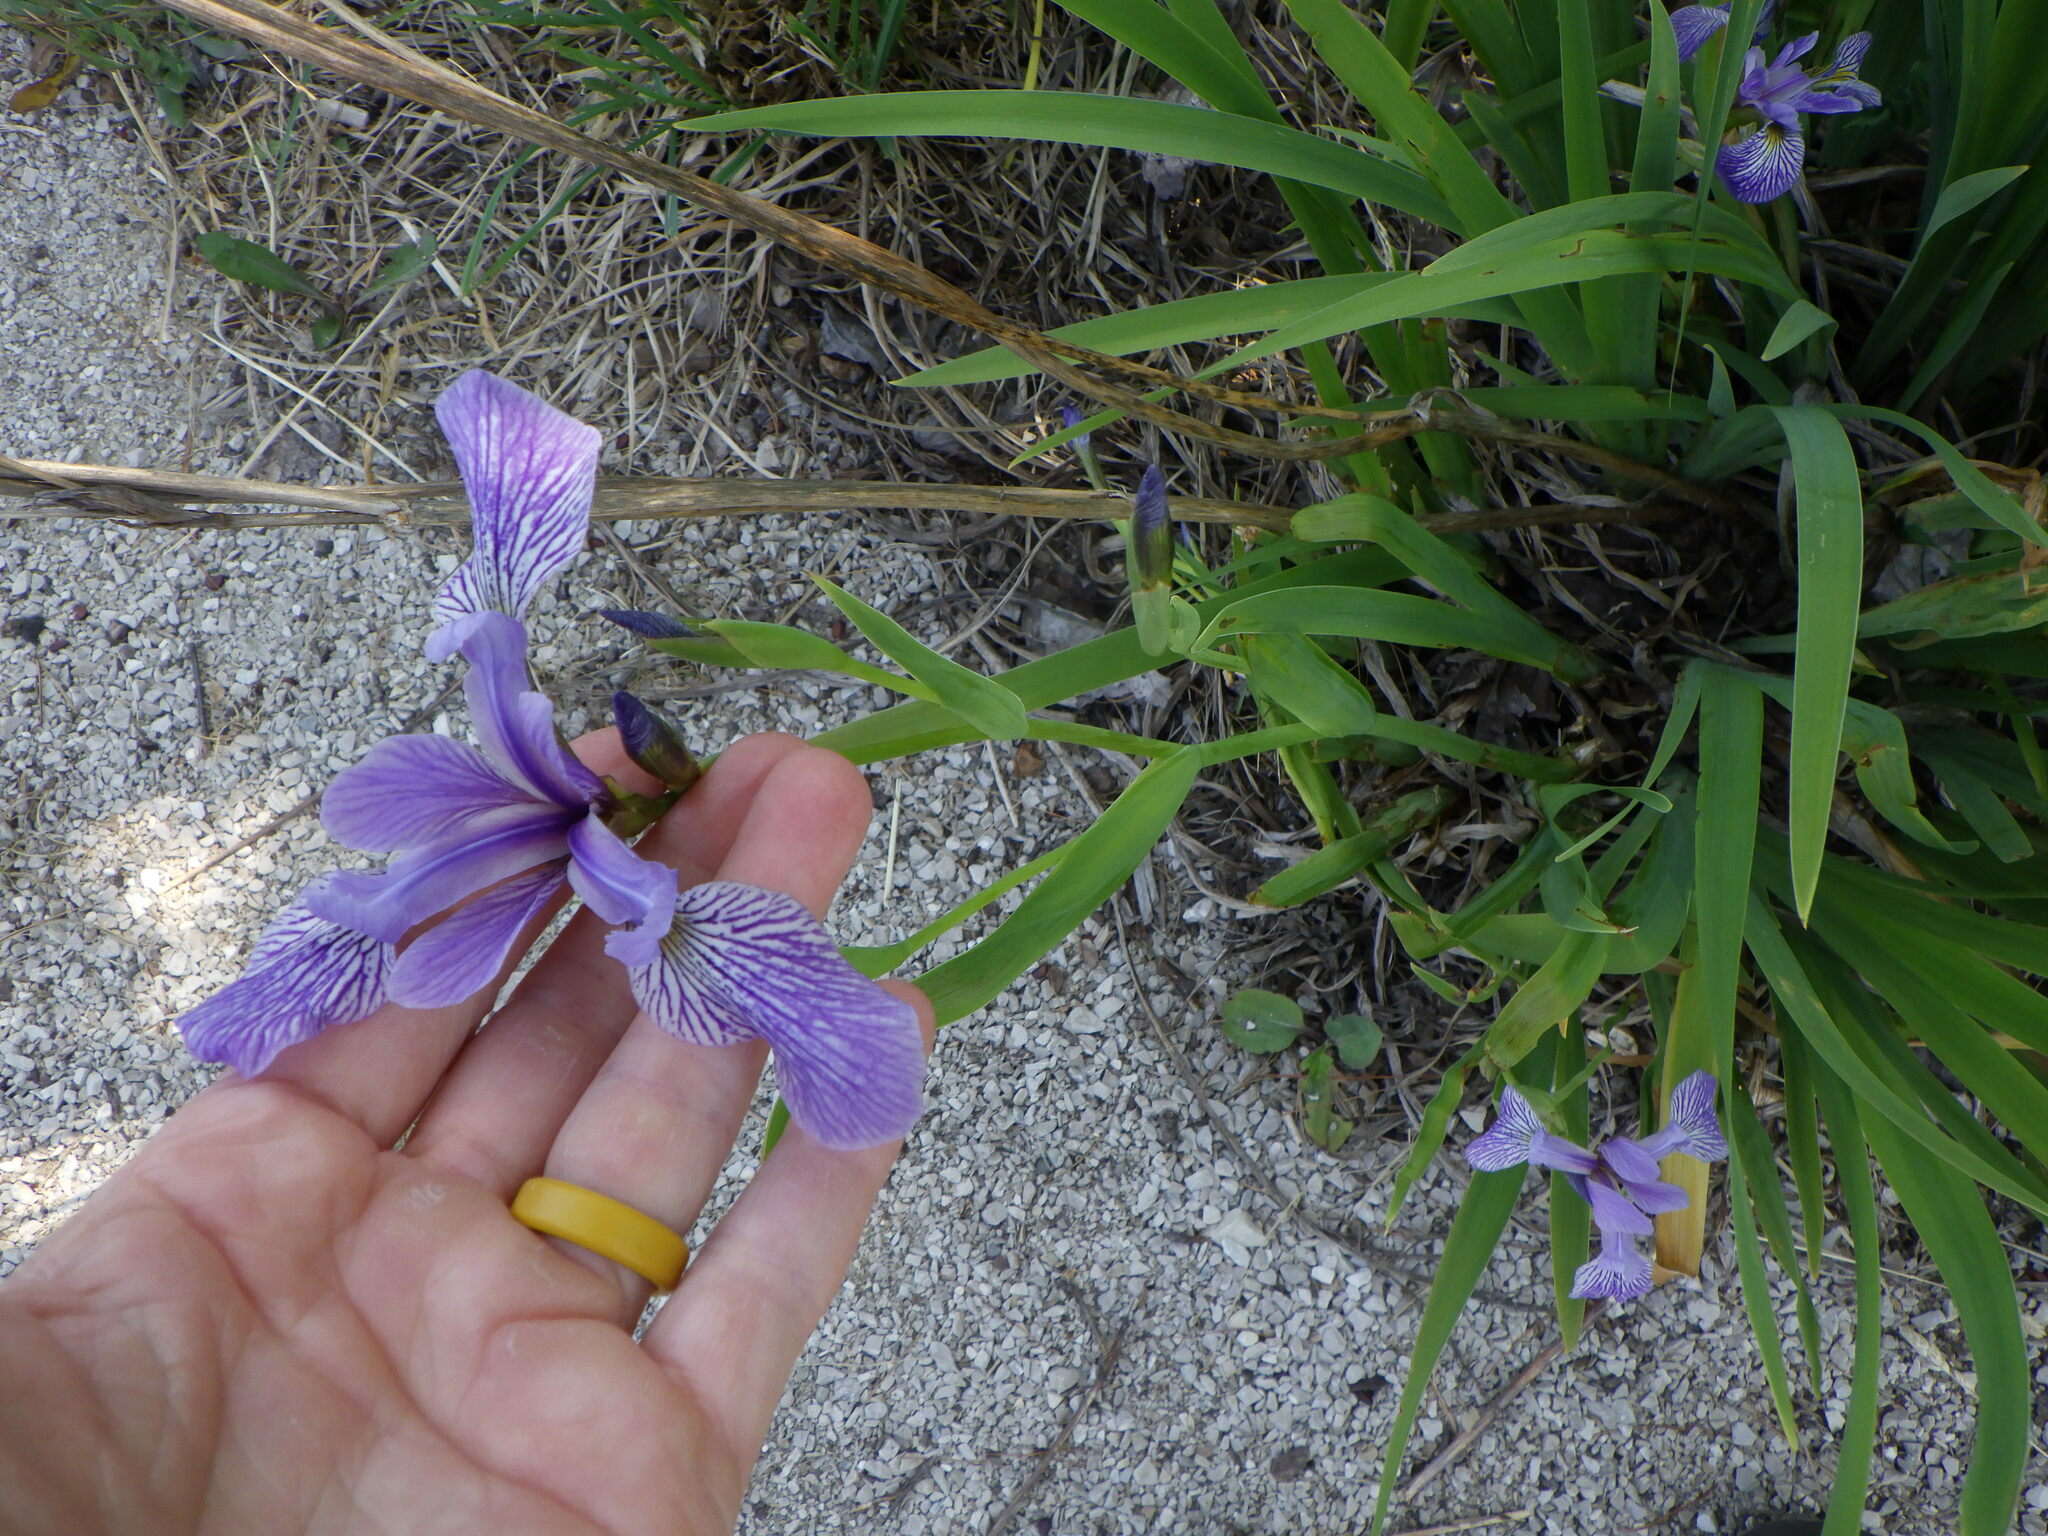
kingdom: Plantae
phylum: Tracheophyta
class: Liliopsida
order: Asparagales
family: Iridaceae
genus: Iris
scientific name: Iris versicolor
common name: Purple iris
